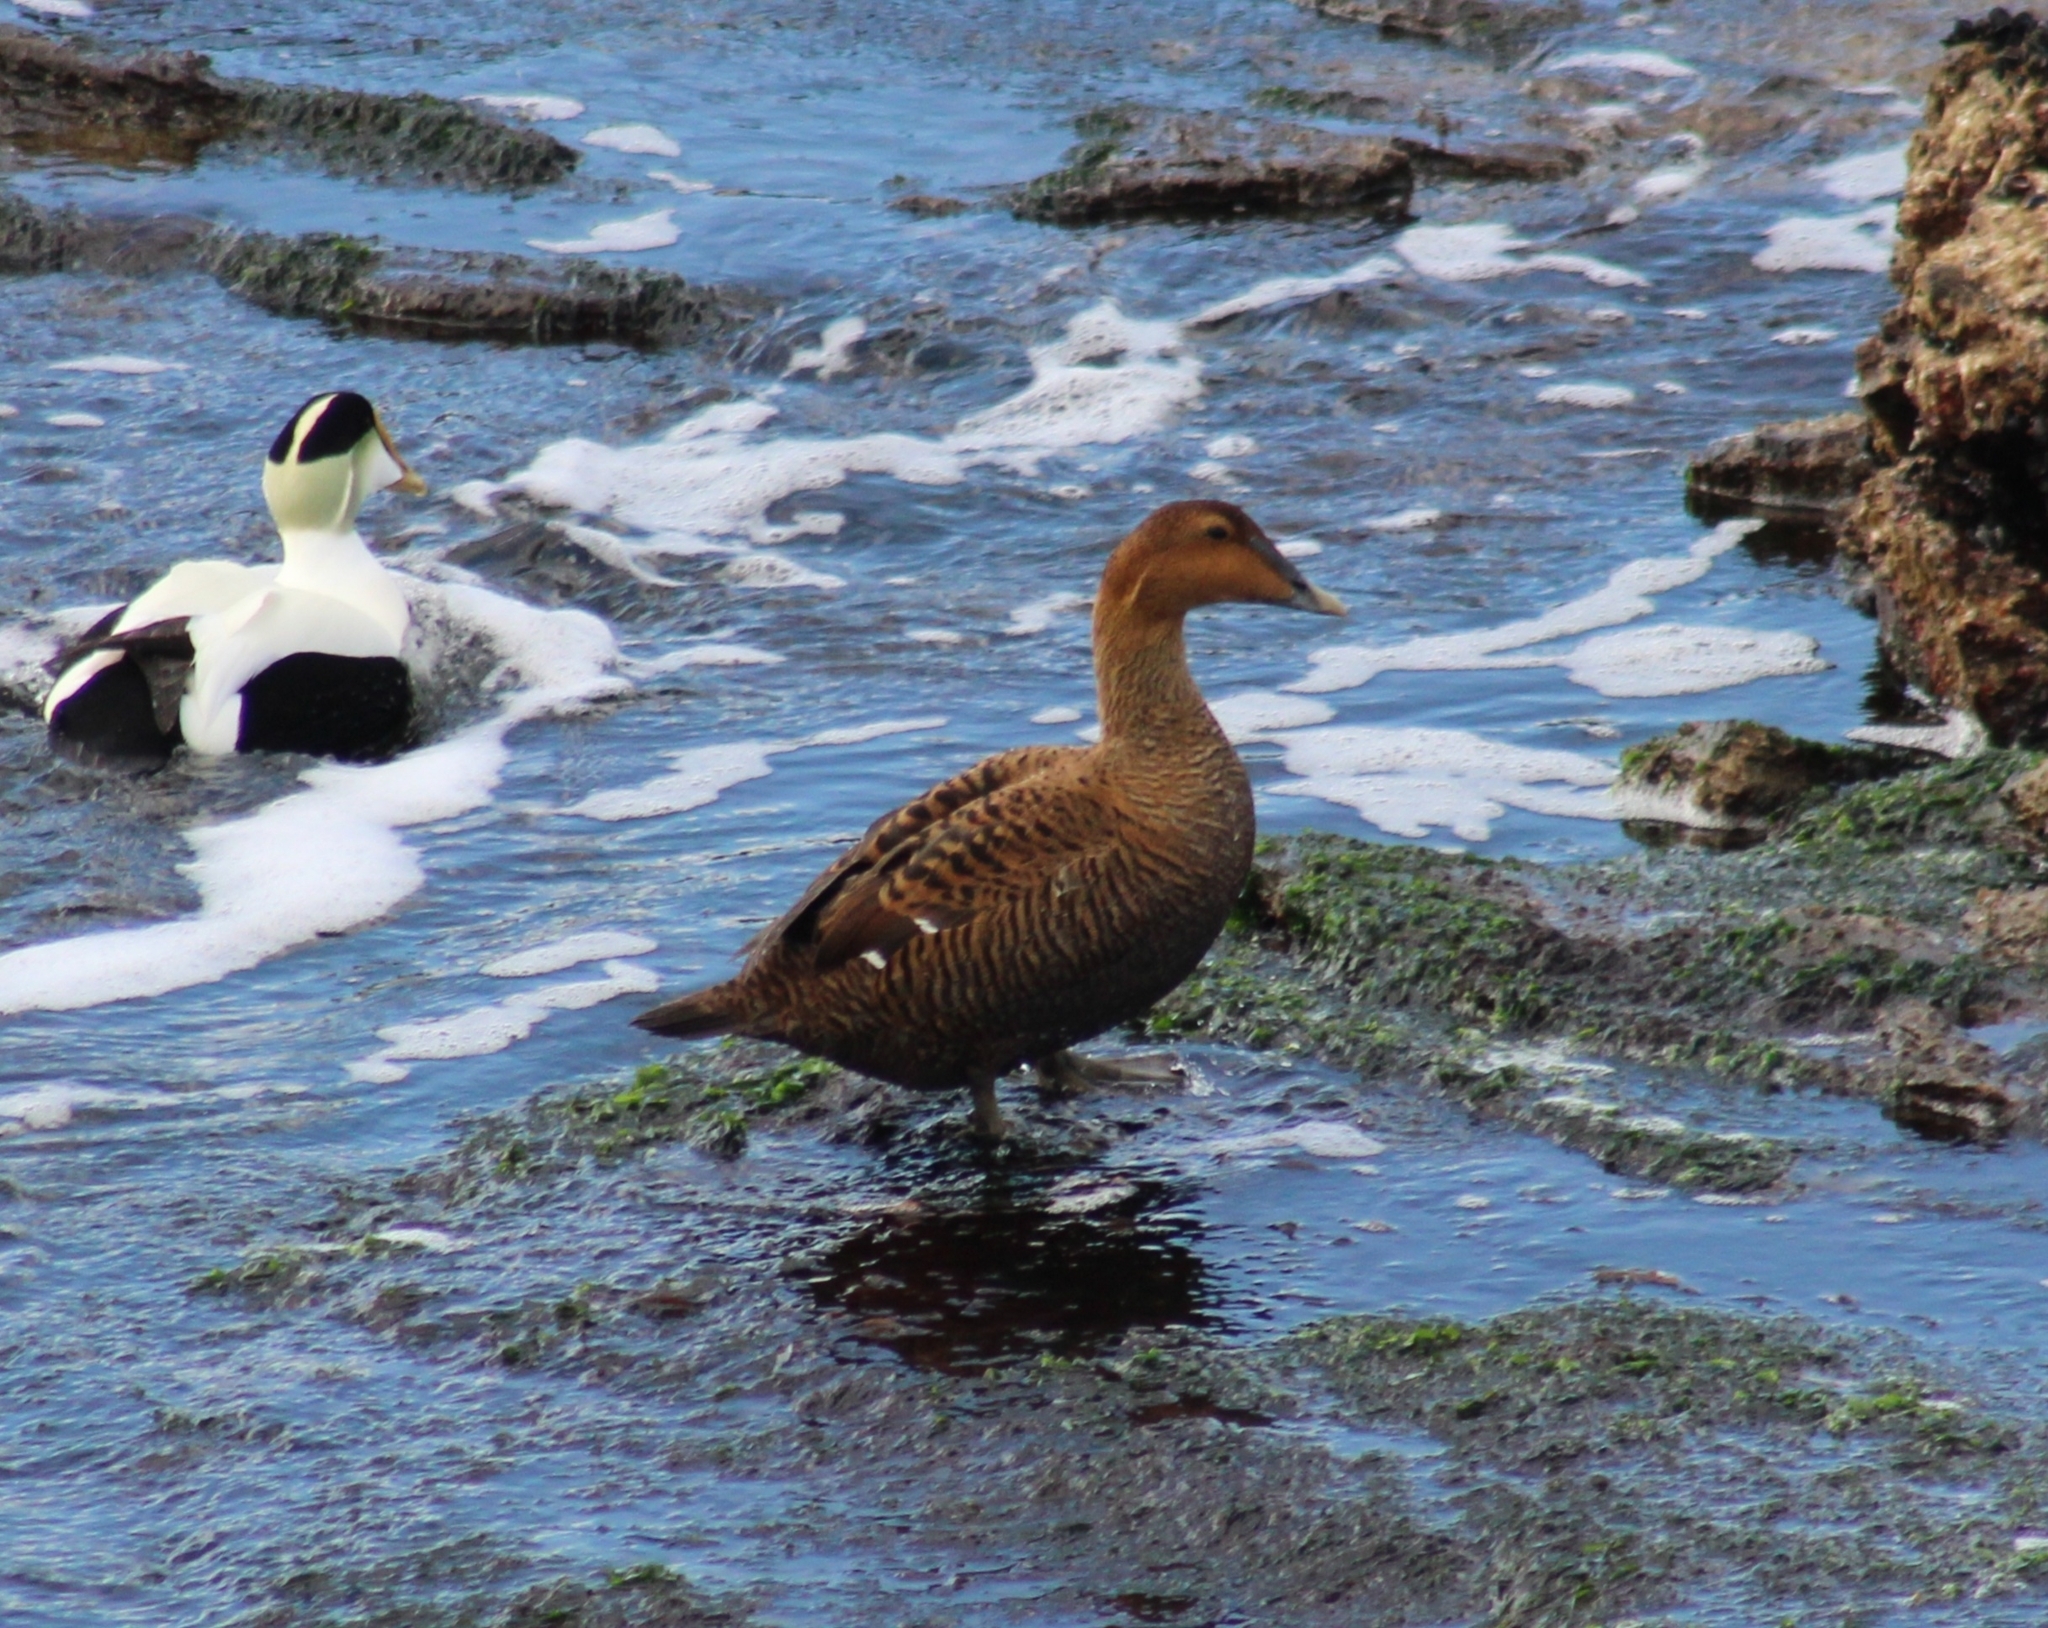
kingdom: Animalia
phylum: Chordata
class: Aves
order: Anseriformes
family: Anatidae
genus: Somateria
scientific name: Somateria mollissima
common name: Common eider
